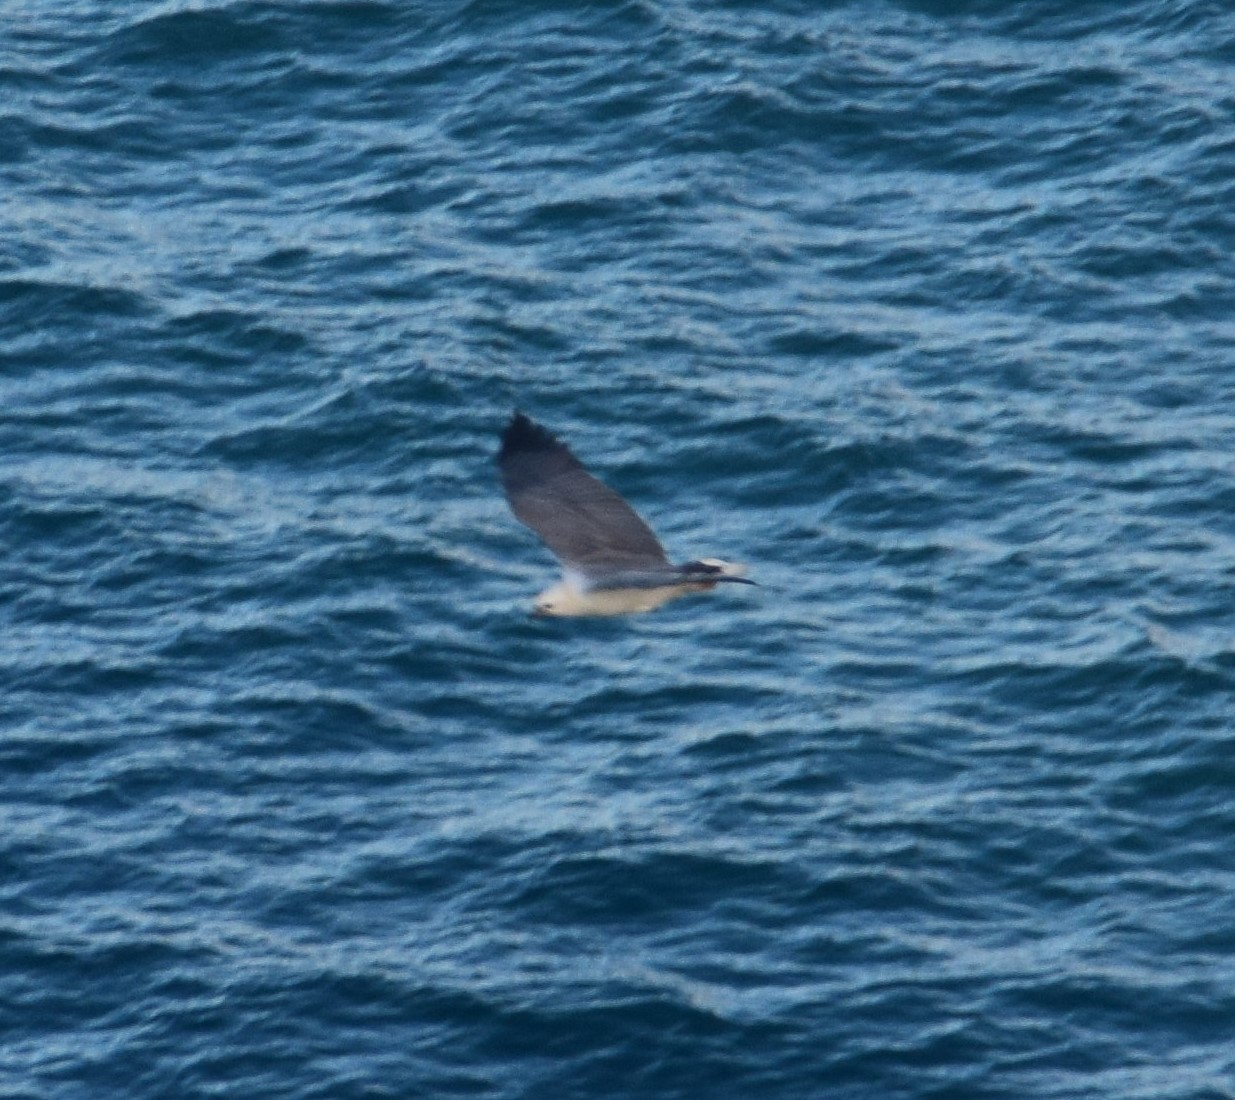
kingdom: Animalia
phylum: Chordata
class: Aves
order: Accipitriformes
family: Accipitridae
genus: Haliaeetus
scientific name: Haliaeetus leucogaster
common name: White-bellied sea eagle
